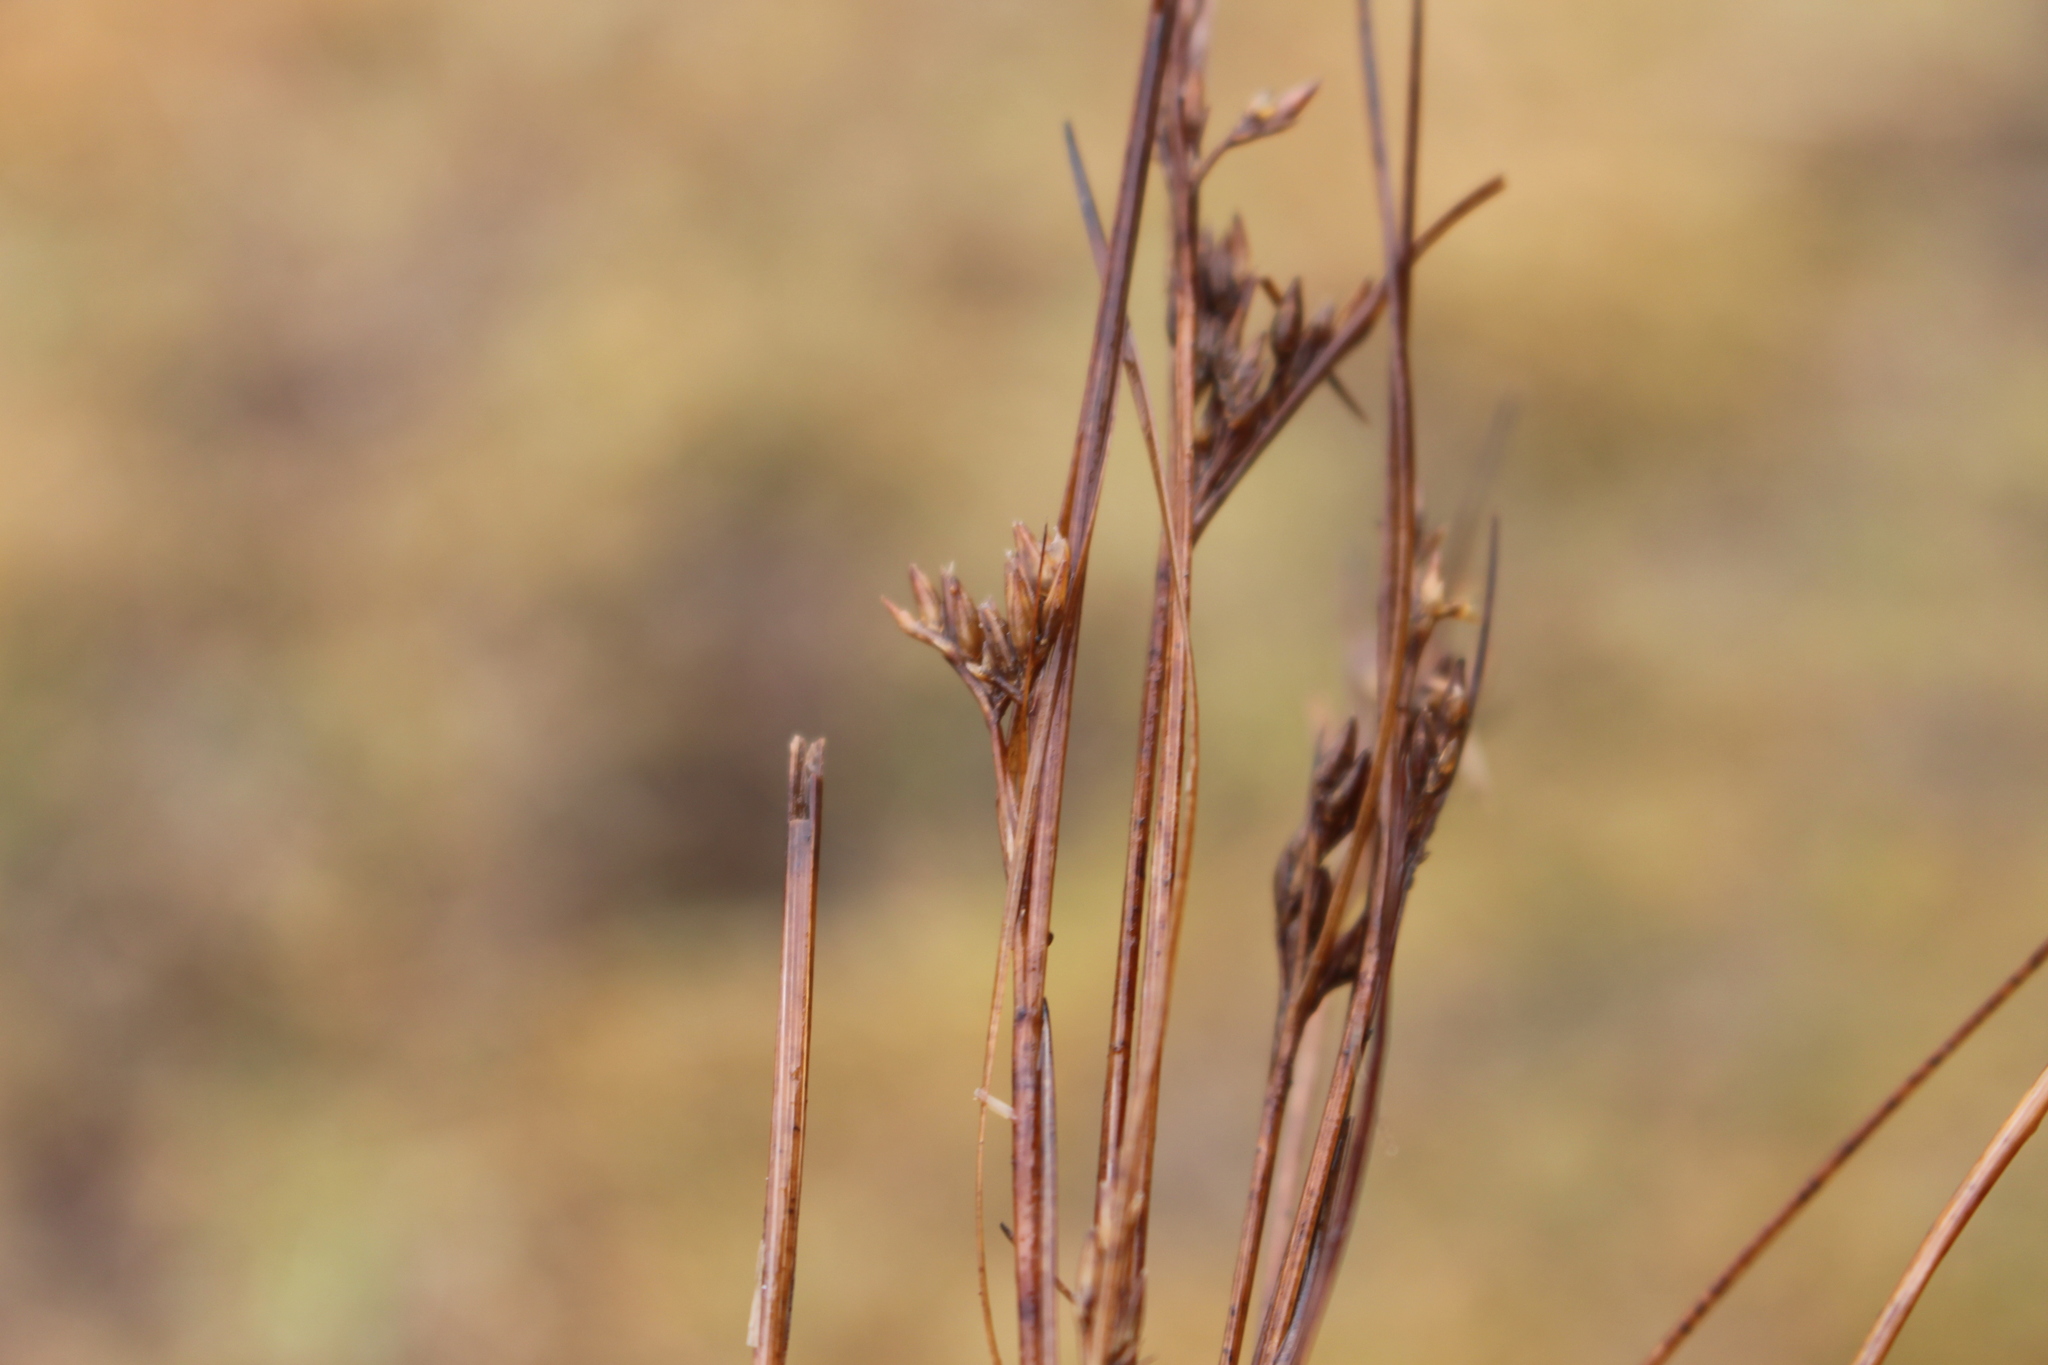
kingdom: Plantae
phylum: Tracheophyta
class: Liliopsida
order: Poales
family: Juncaceae
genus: Juncus
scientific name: Juncus acuminatus
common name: Knotty-leaved rush
